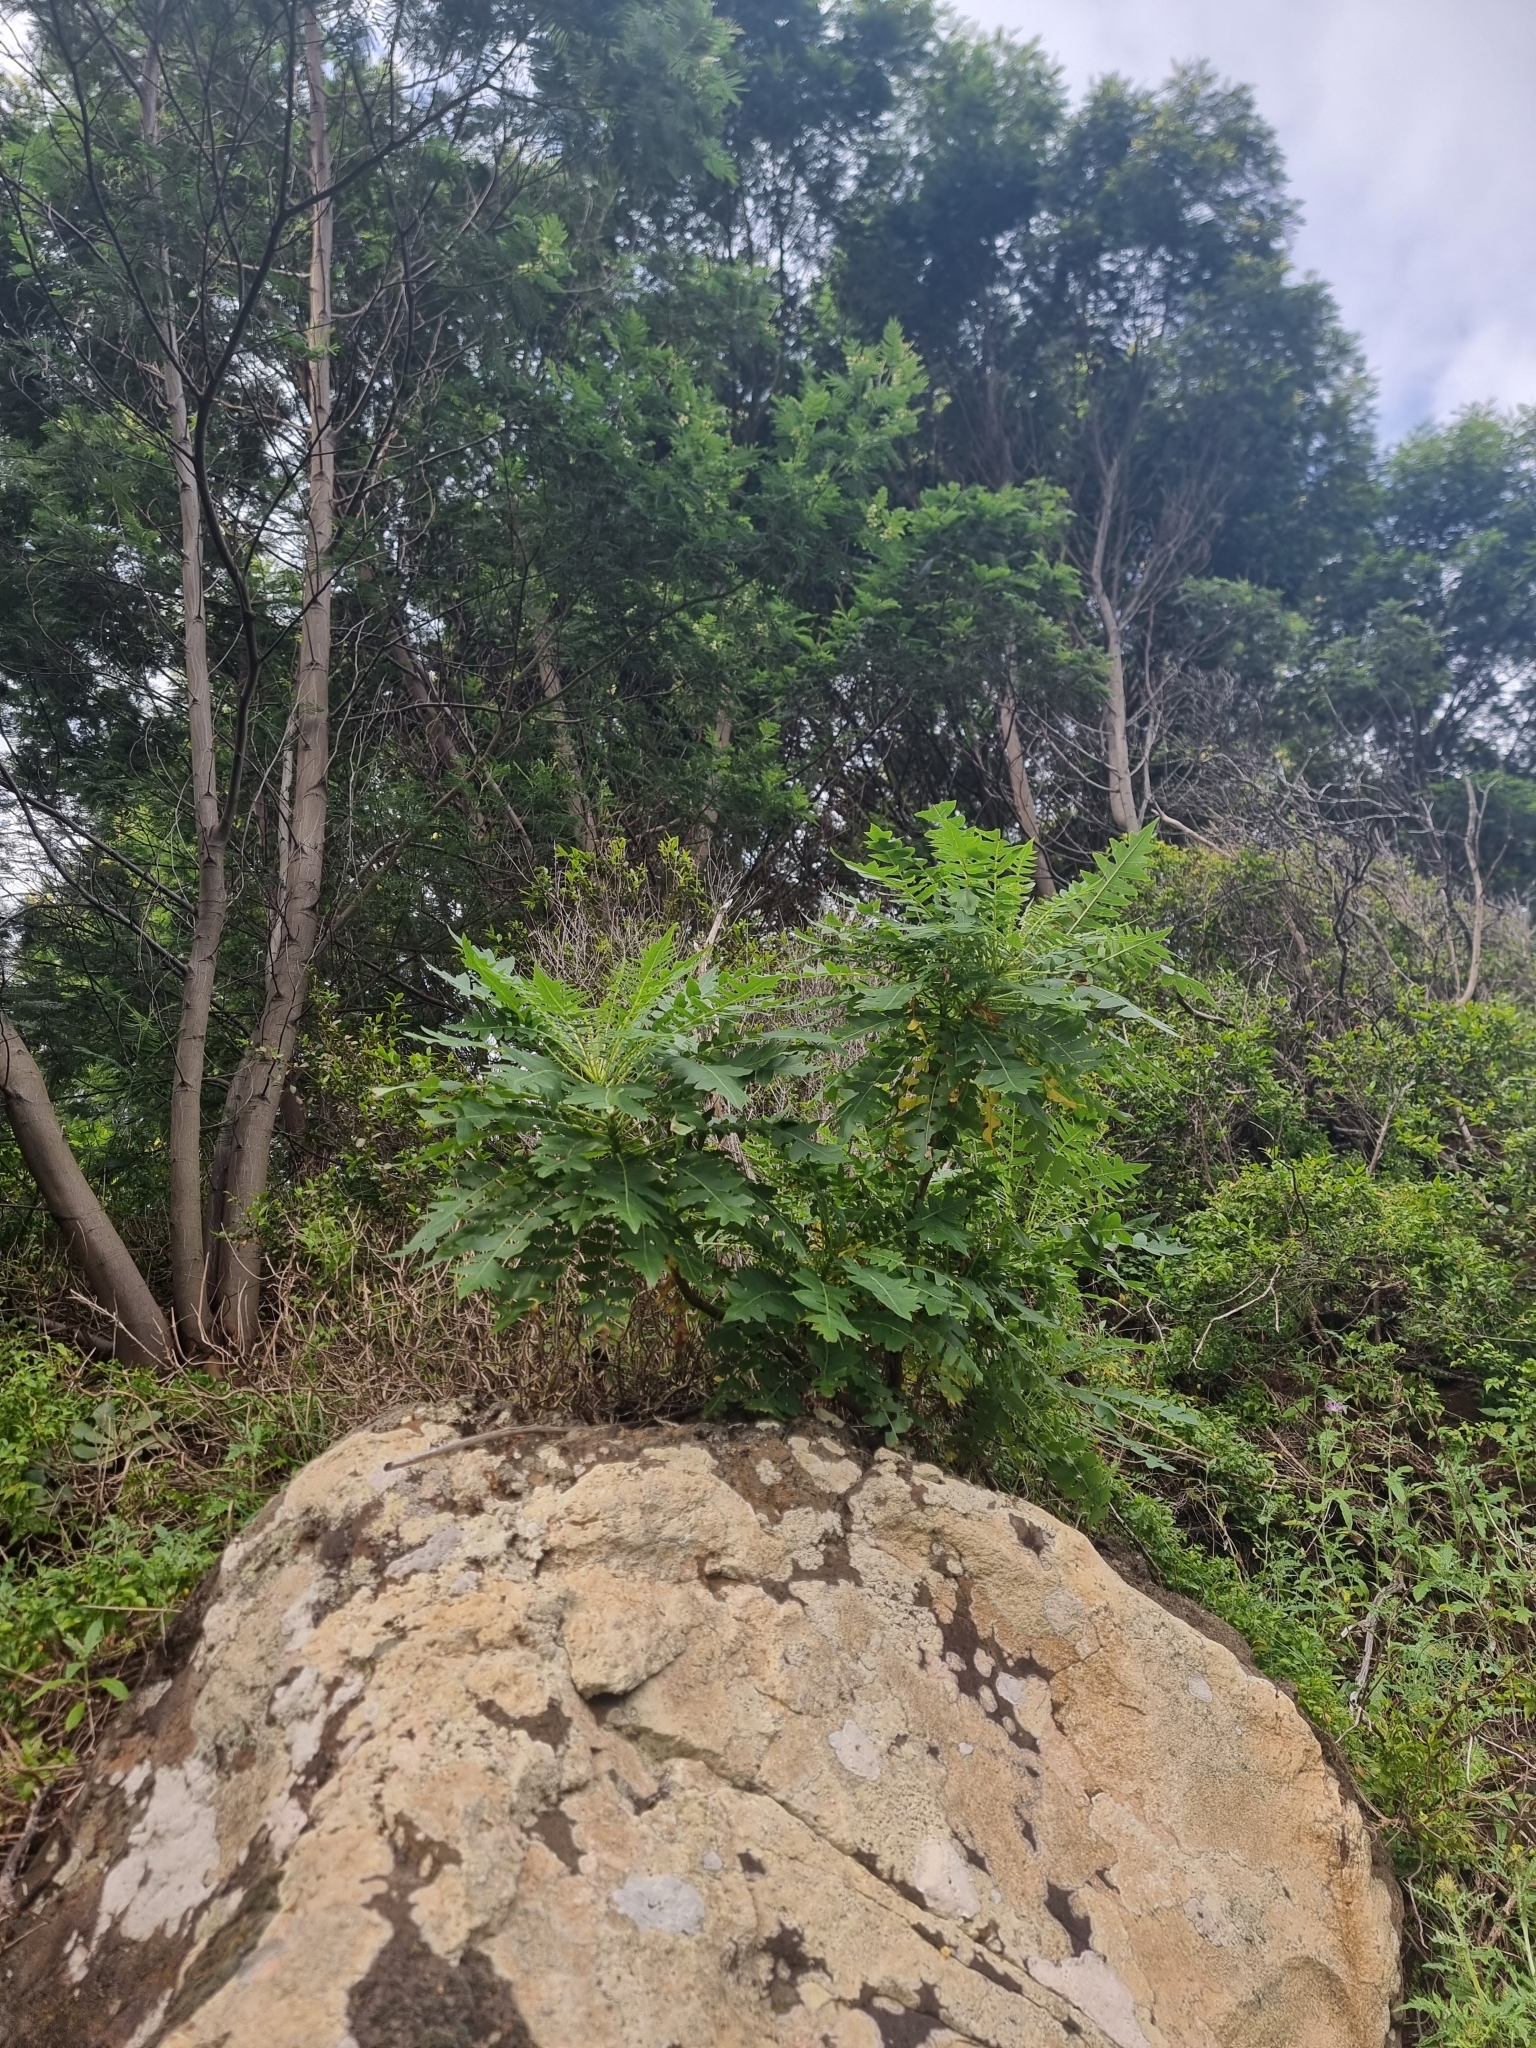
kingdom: Plantae
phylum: Tracheophyta
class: Magnoliopsida
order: Asterales
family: Asteraceae
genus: Sonchus
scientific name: Sonchus pinnatus
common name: Wing-leaved sow-thistle
